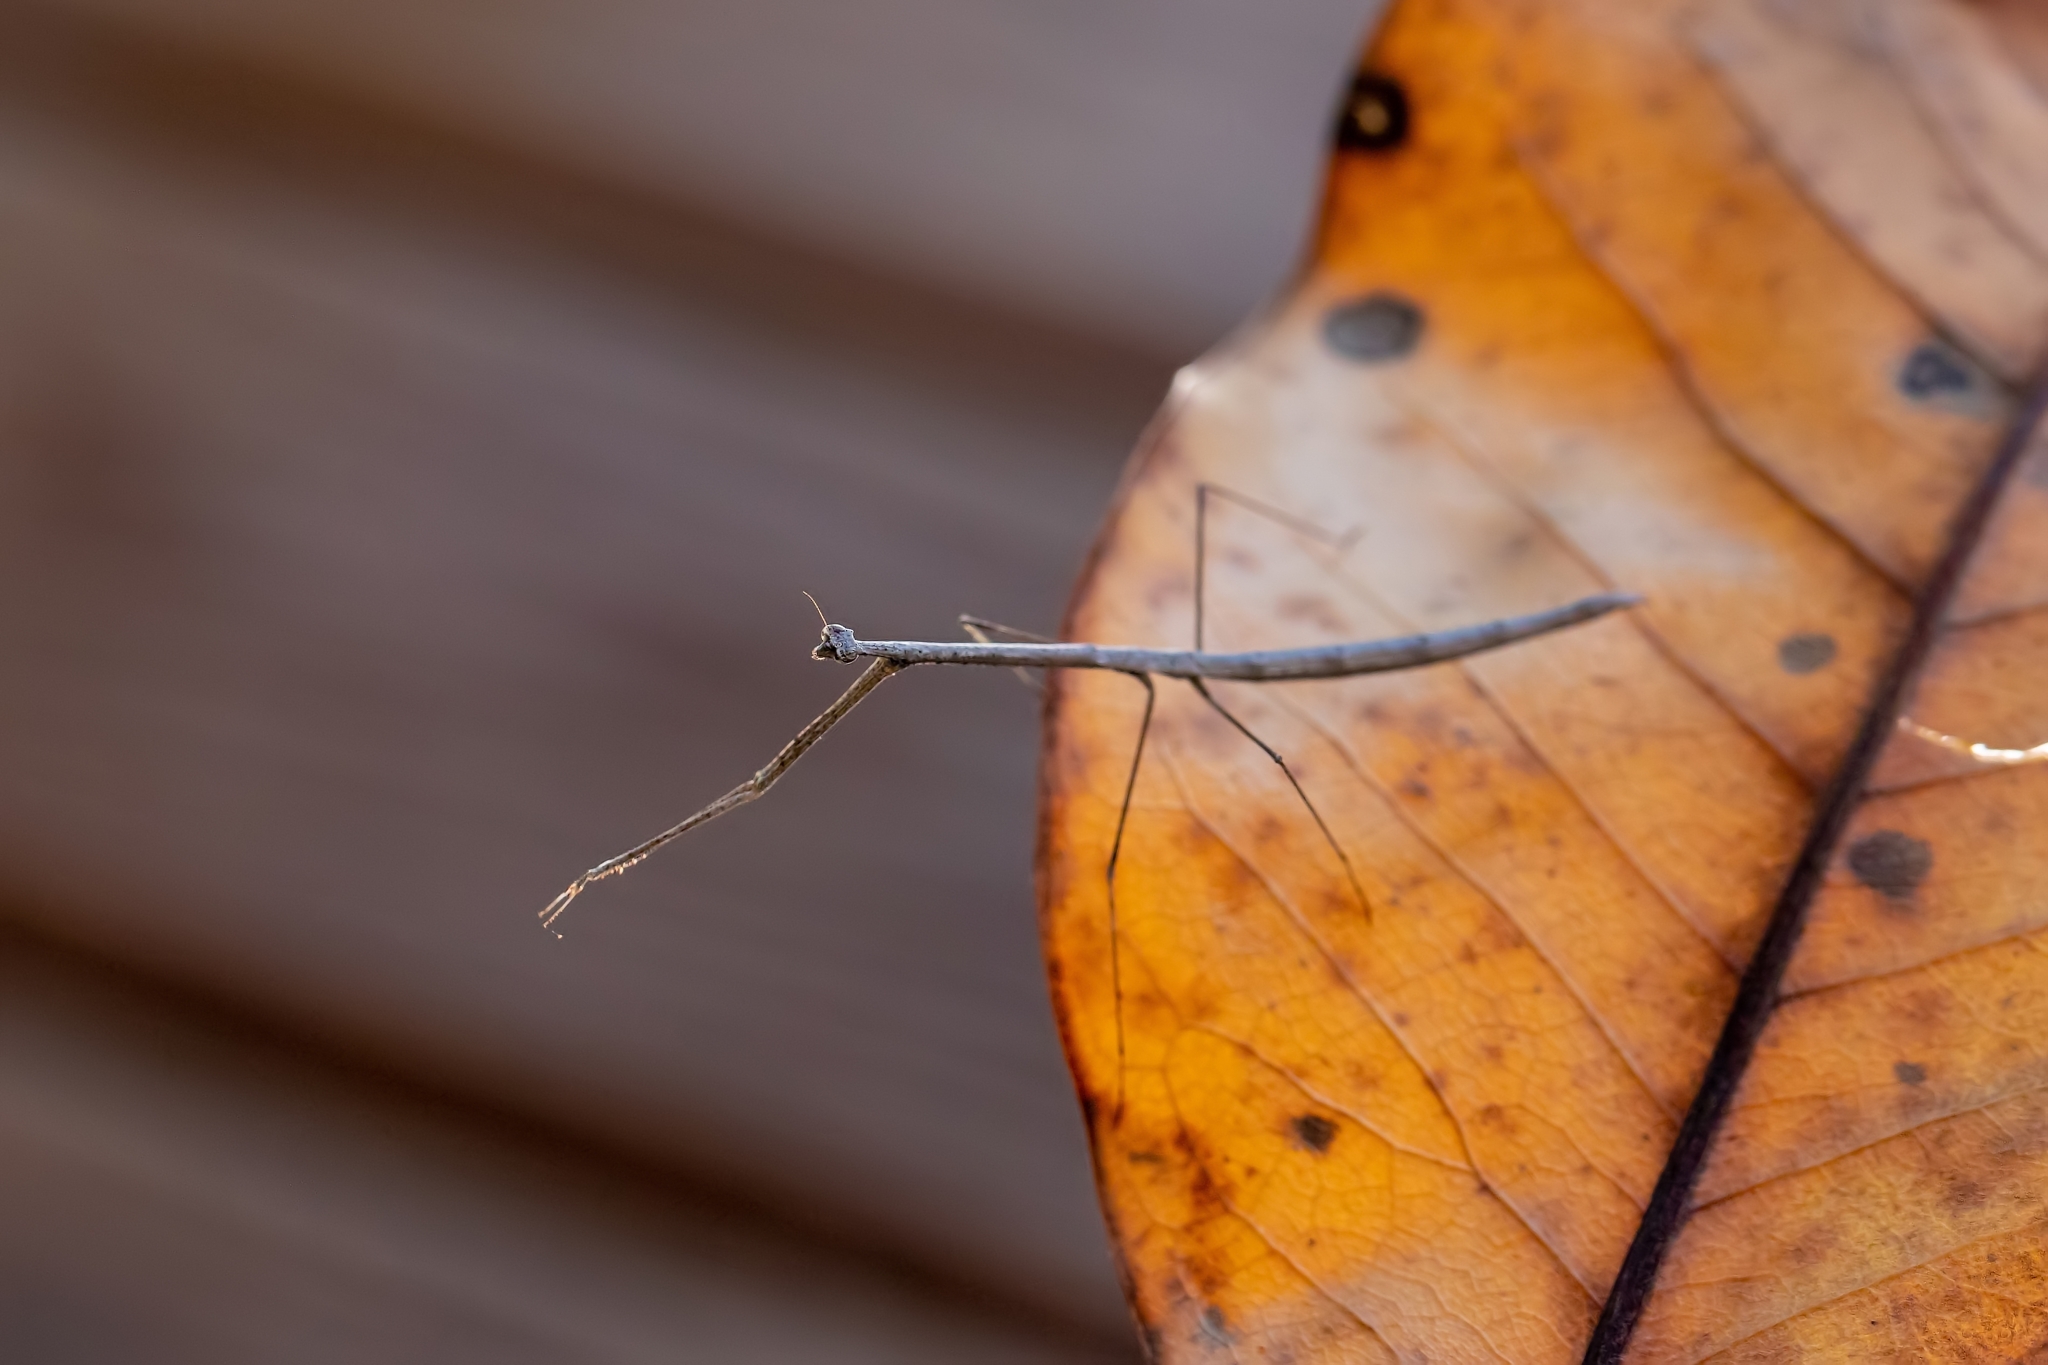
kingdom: Animalia
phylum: Arthropoda
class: Insecta
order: Mantodea
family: Thespidae
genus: Thesprotia
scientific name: Thesprotia graminis
